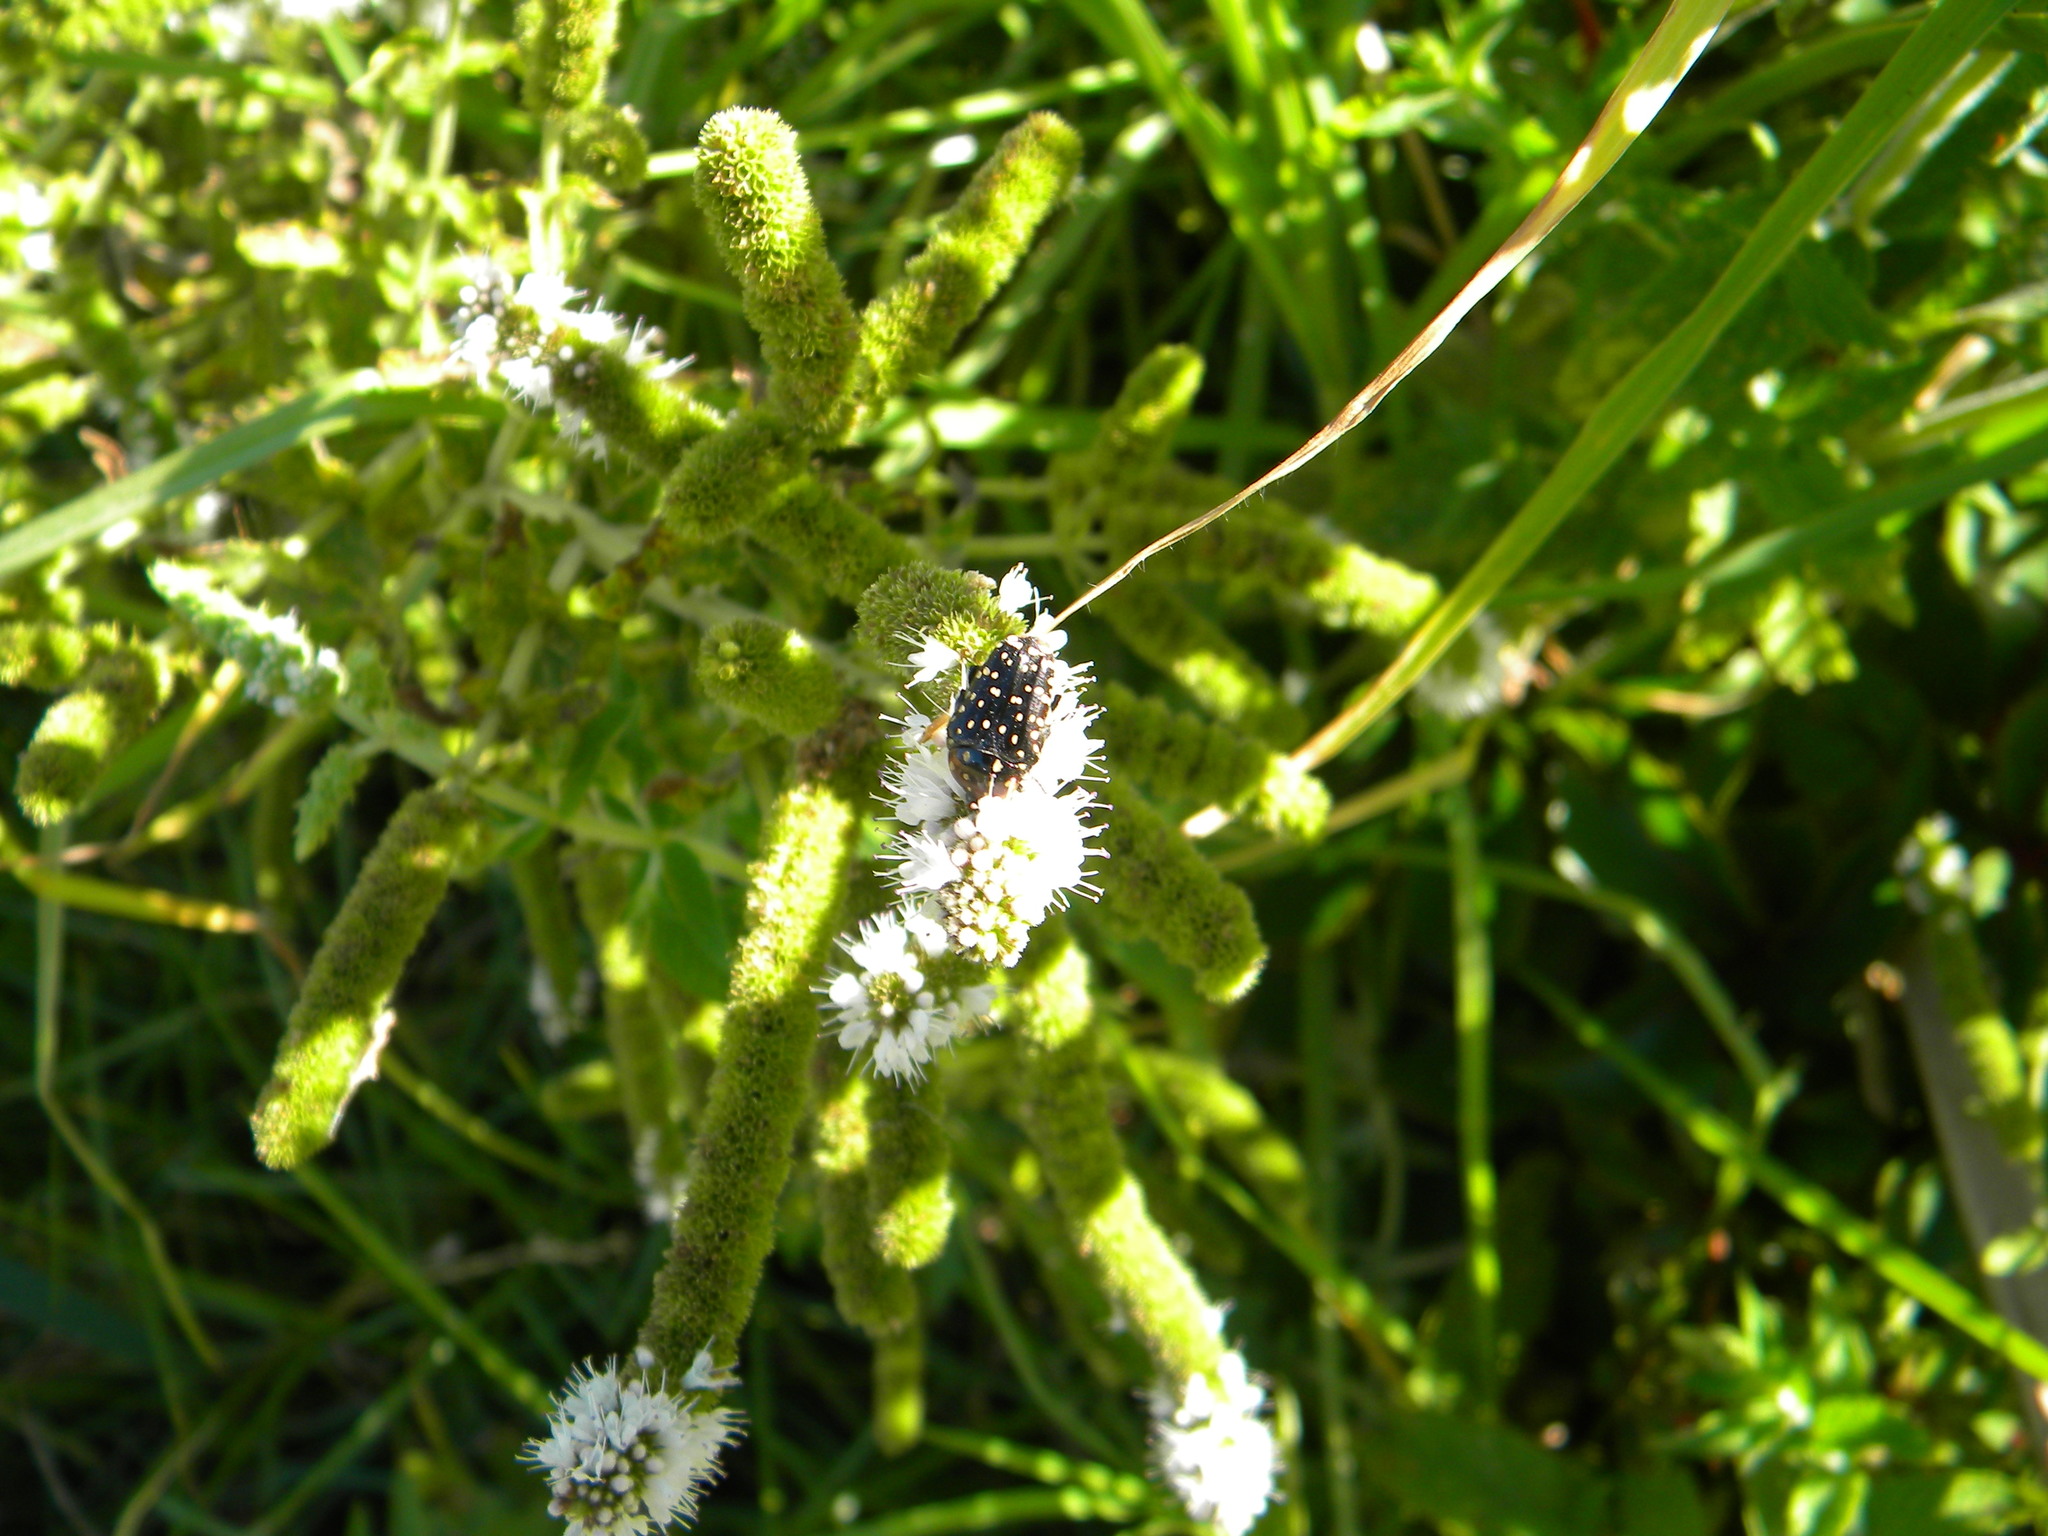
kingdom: Animalia
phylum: Arthropoda
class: Insecta
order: Coleoptera
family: Scarabaeidae
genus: Oxythyrea
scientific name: Oxythyrea
